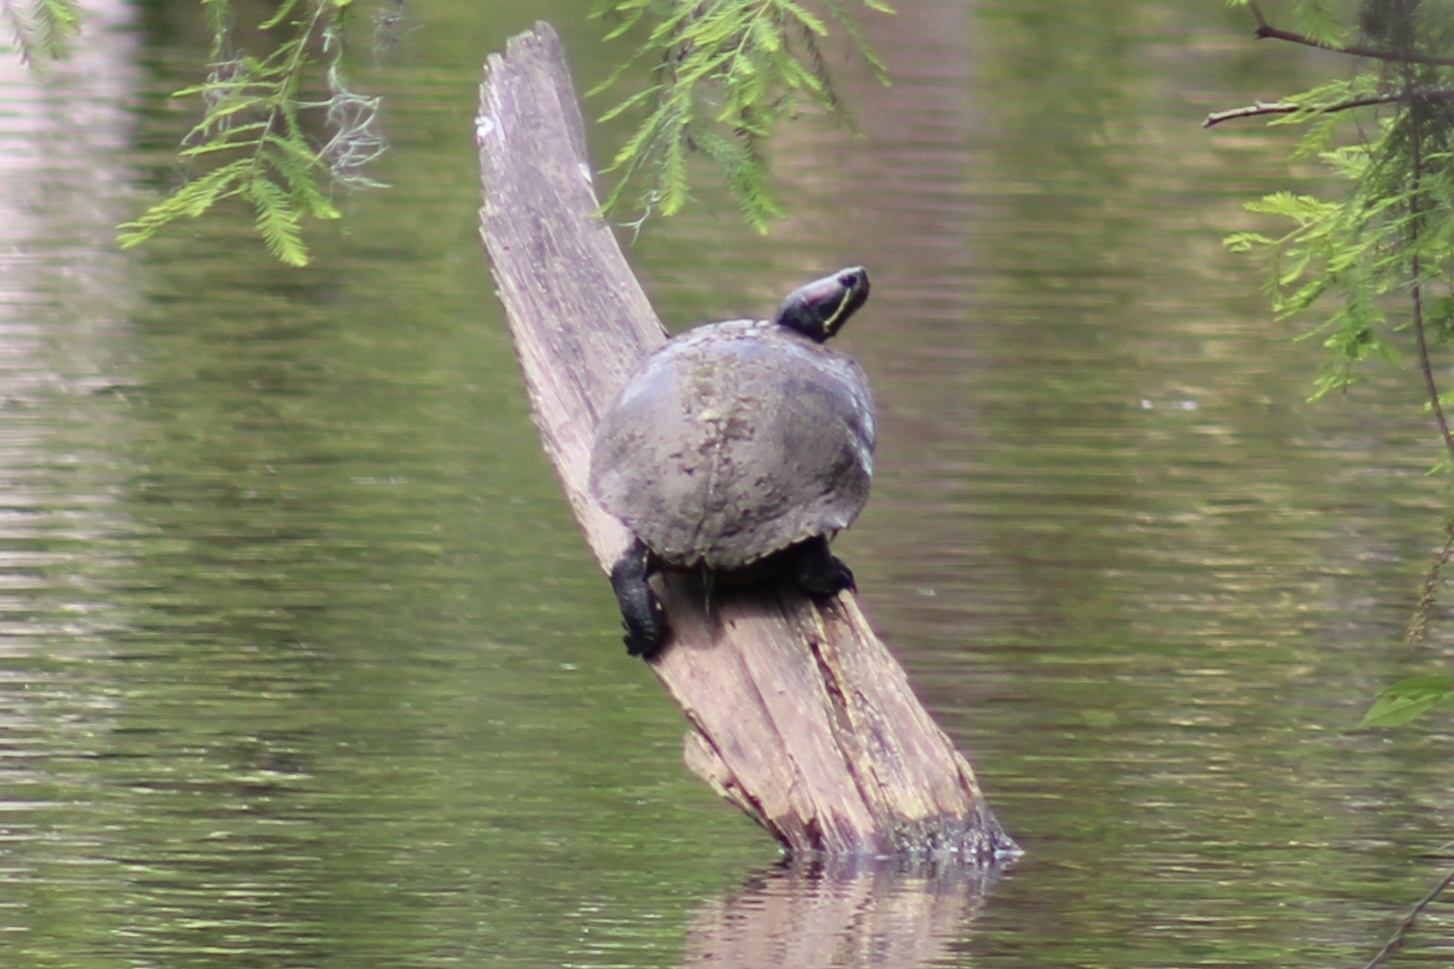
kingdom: Animalia
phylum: Chordata
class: Testudines
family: Emydidae
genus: Trachemys
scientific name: Trachemys scripta
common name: Slider
